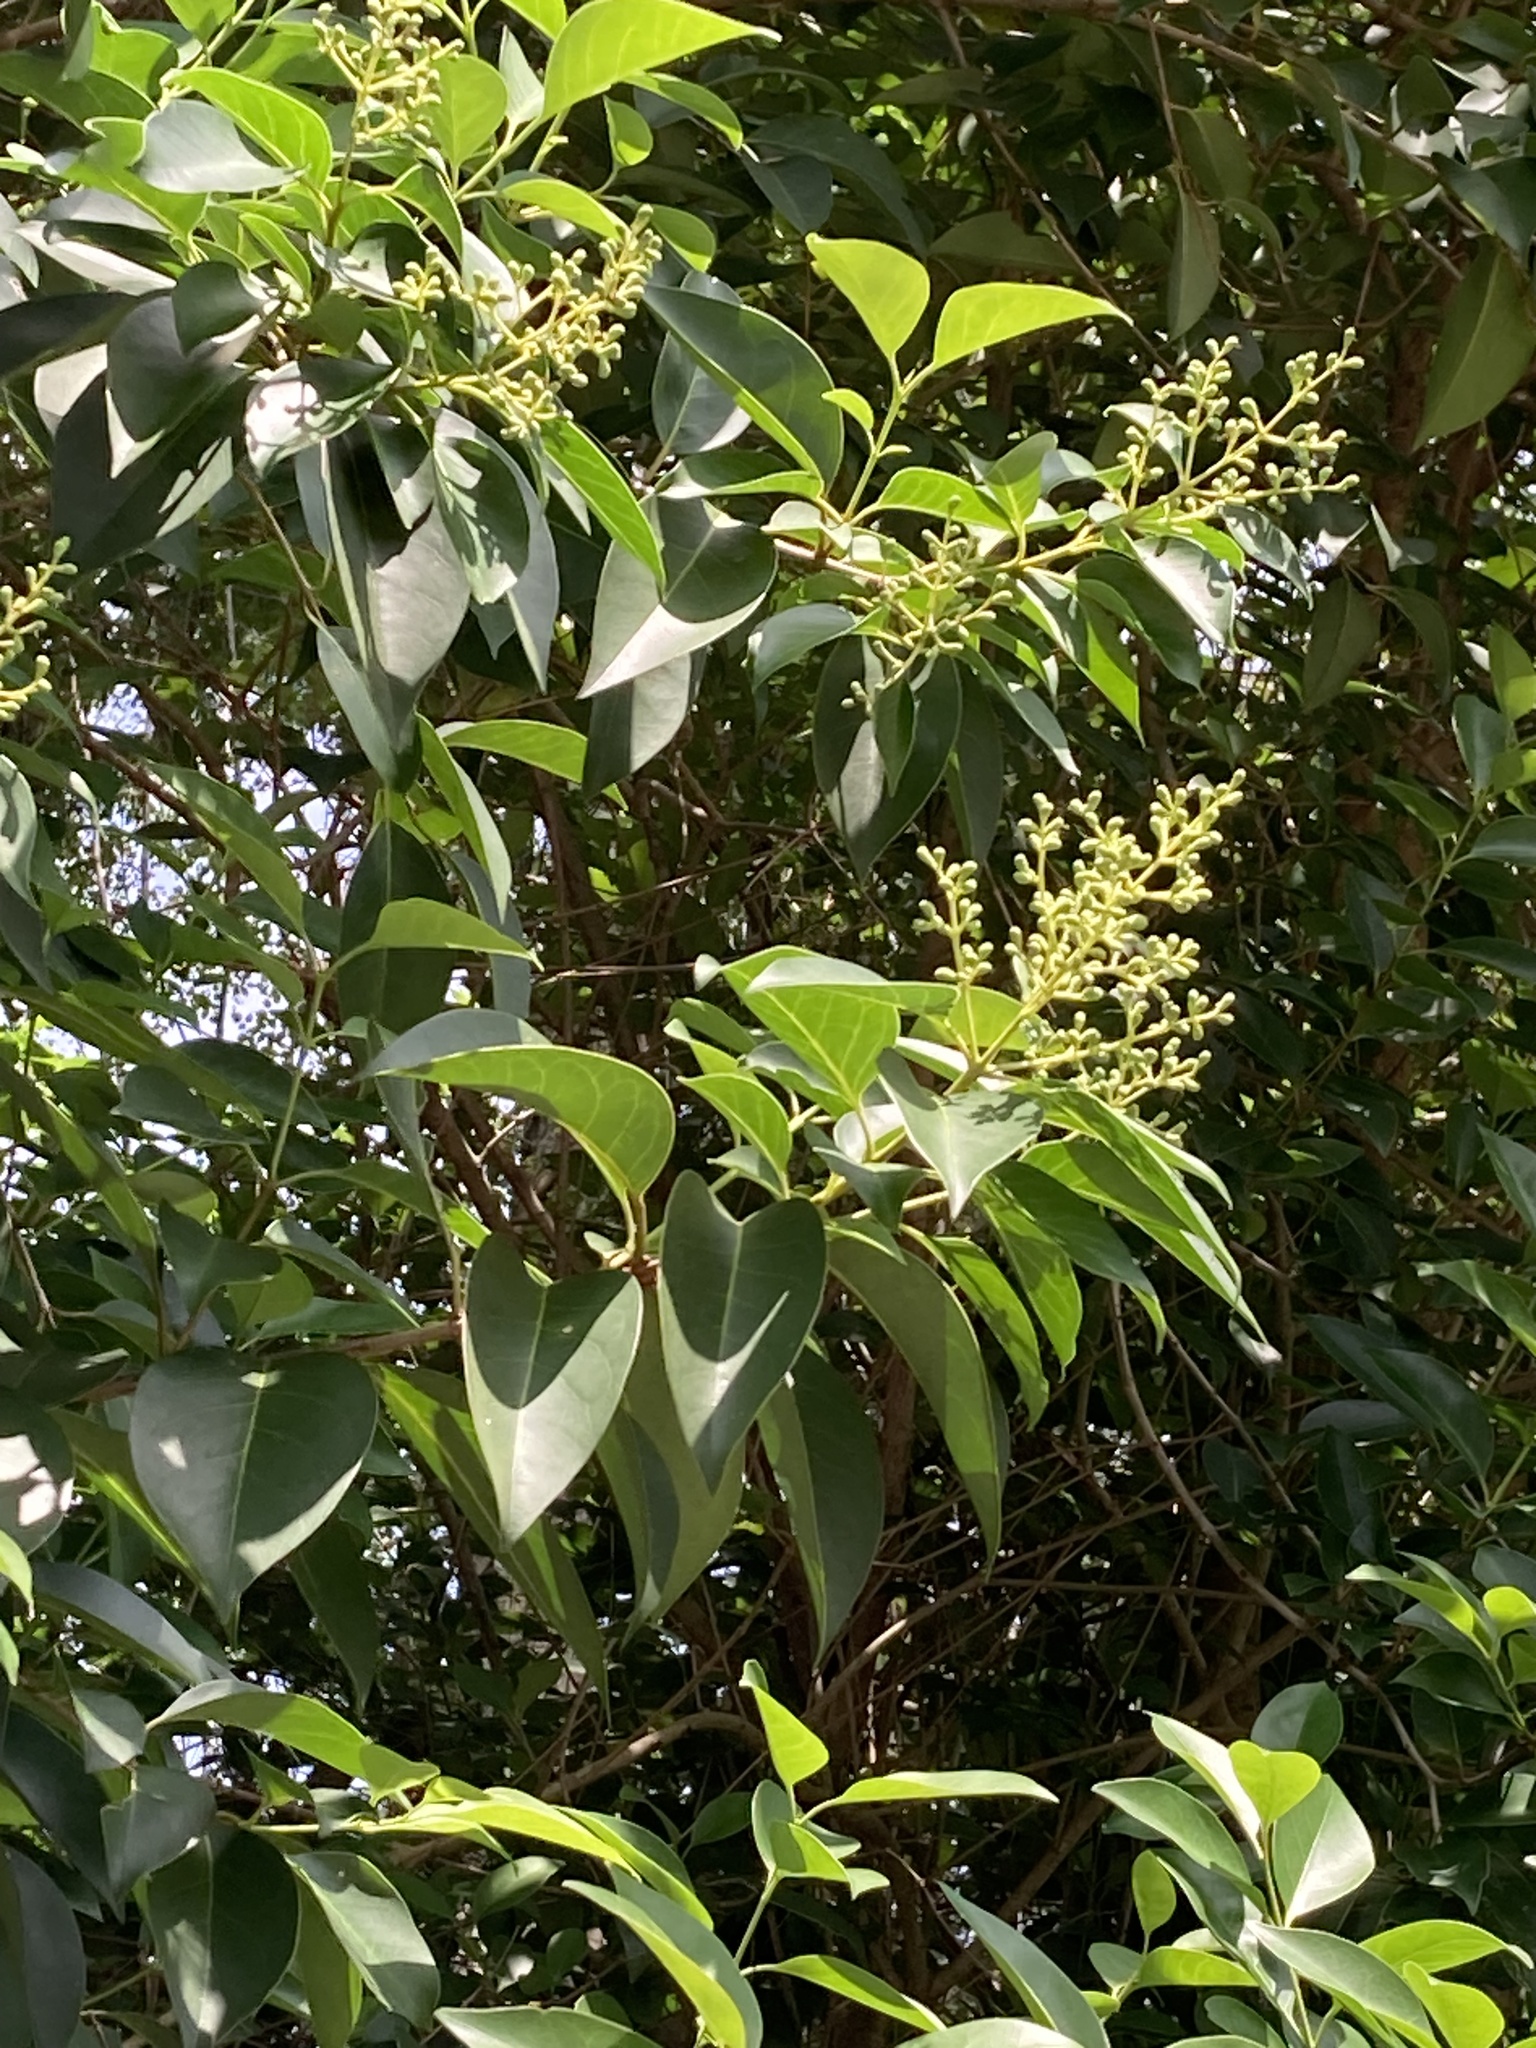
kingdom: Plantae
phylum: Tracheophyta
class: Magnoliopsida
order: Lamiales
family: Oleaceae
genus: Ligustrum
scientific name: Ligustrum lucidum
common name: Glossy privet
